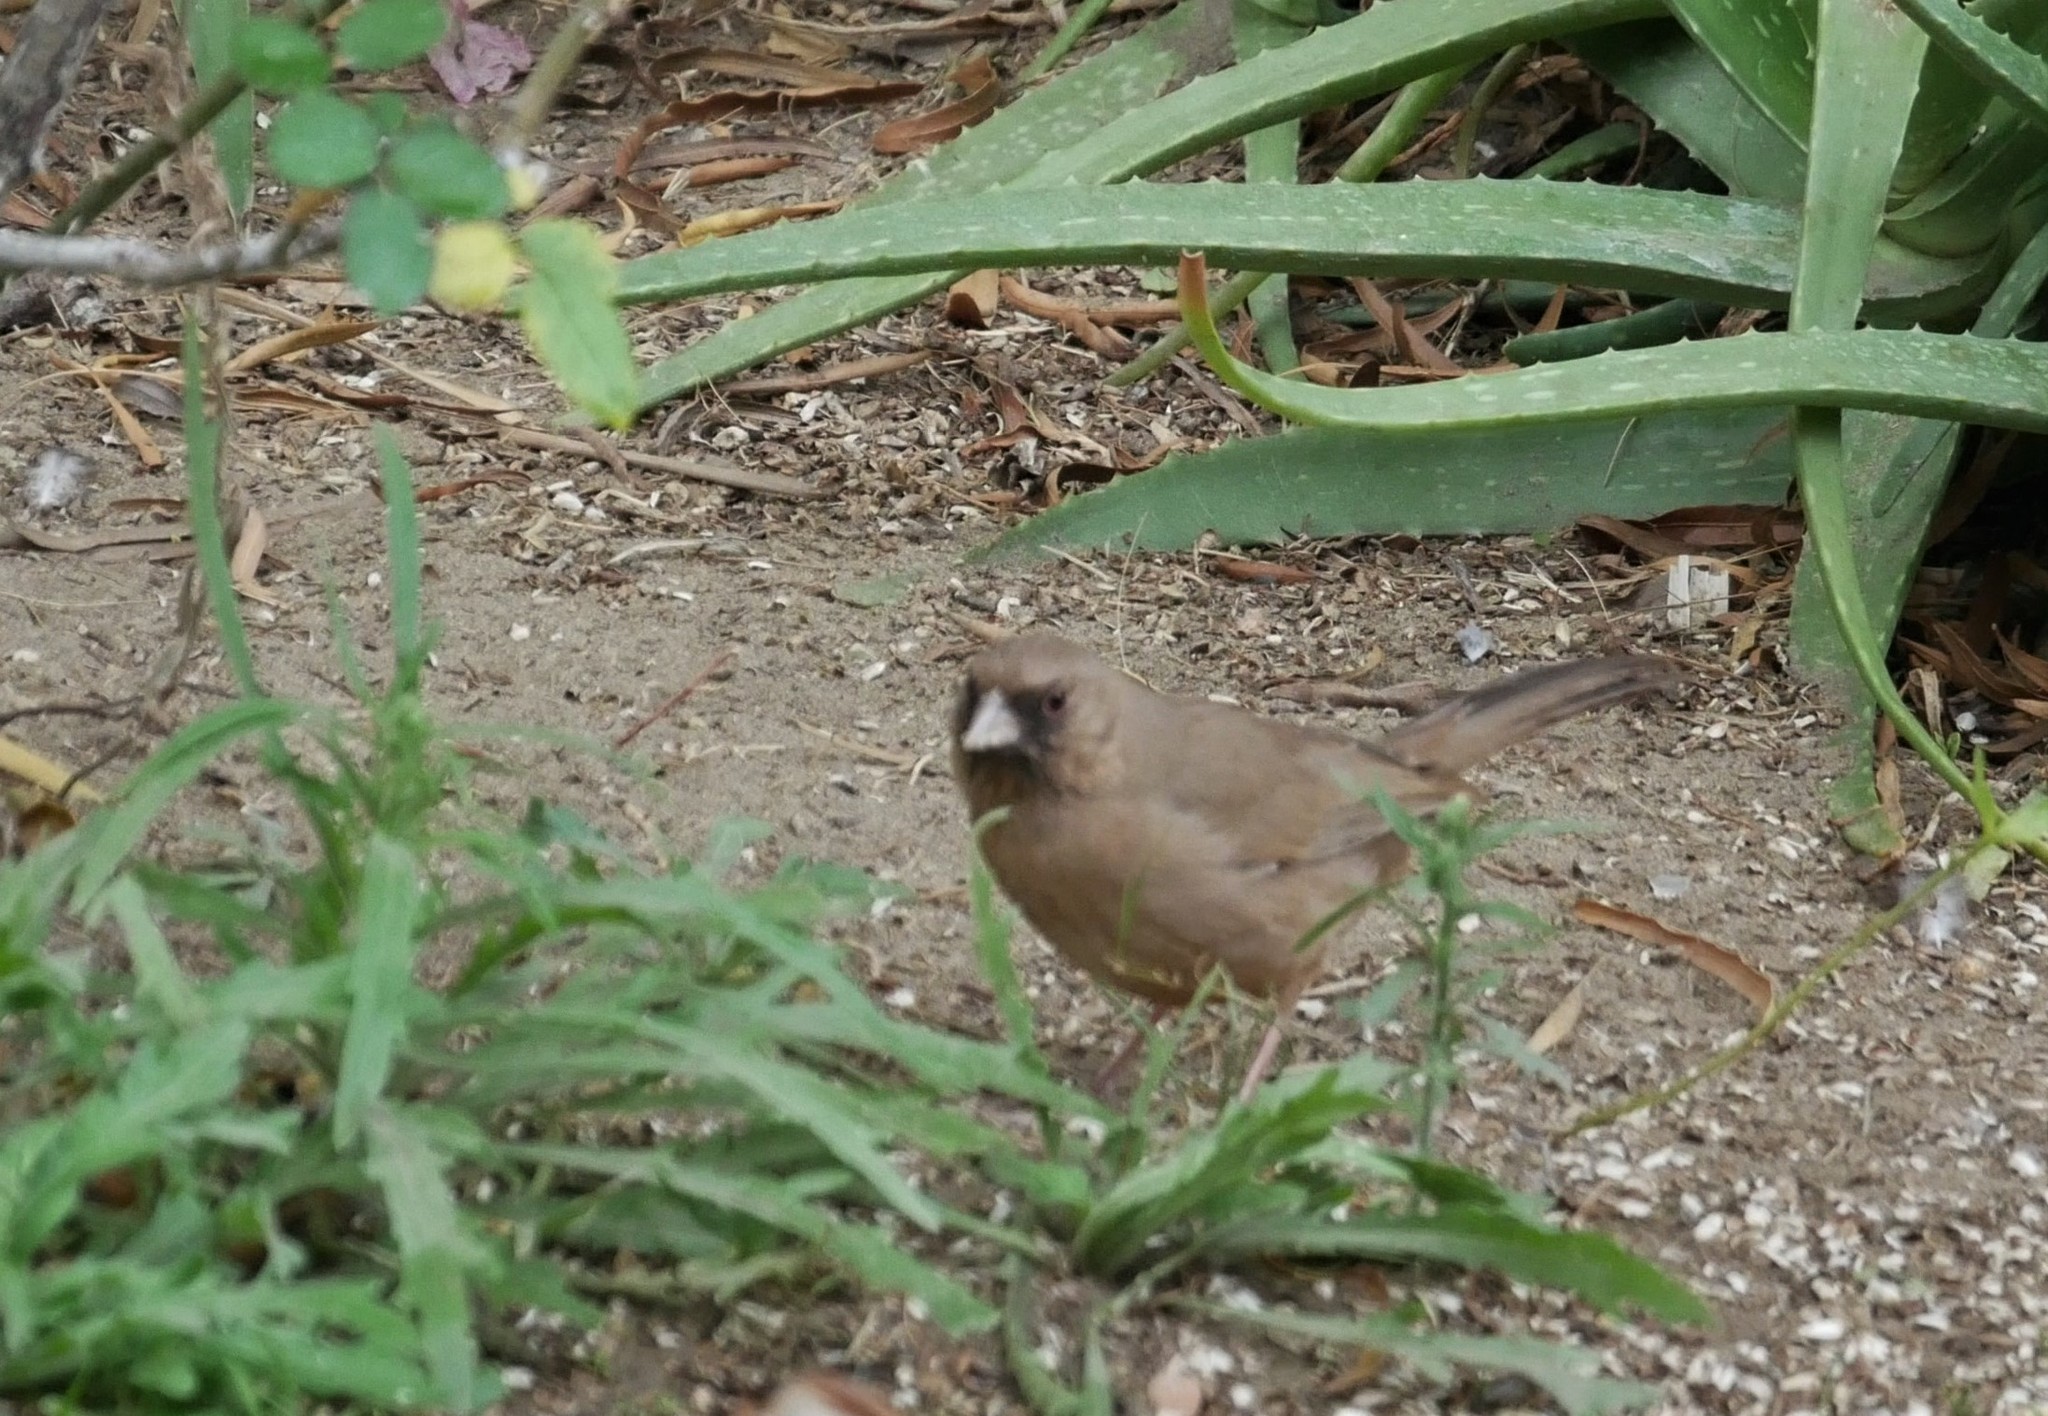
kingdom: Animalia
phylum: Chordata
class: Aves
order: Passeriformes
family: Passerellidae
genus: Melozone
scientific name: Melozone aberti
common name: Abert's towhee
